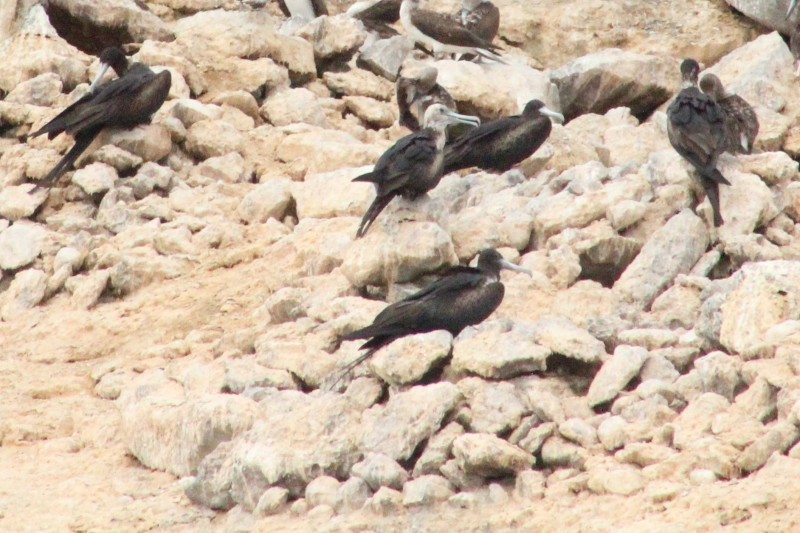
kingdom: Animalia
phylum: Chordata
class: Aves
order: Suliformes
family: Fregatidae
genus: Fregata
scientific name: Fregata magnificens
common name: Magnificent frigatebird
